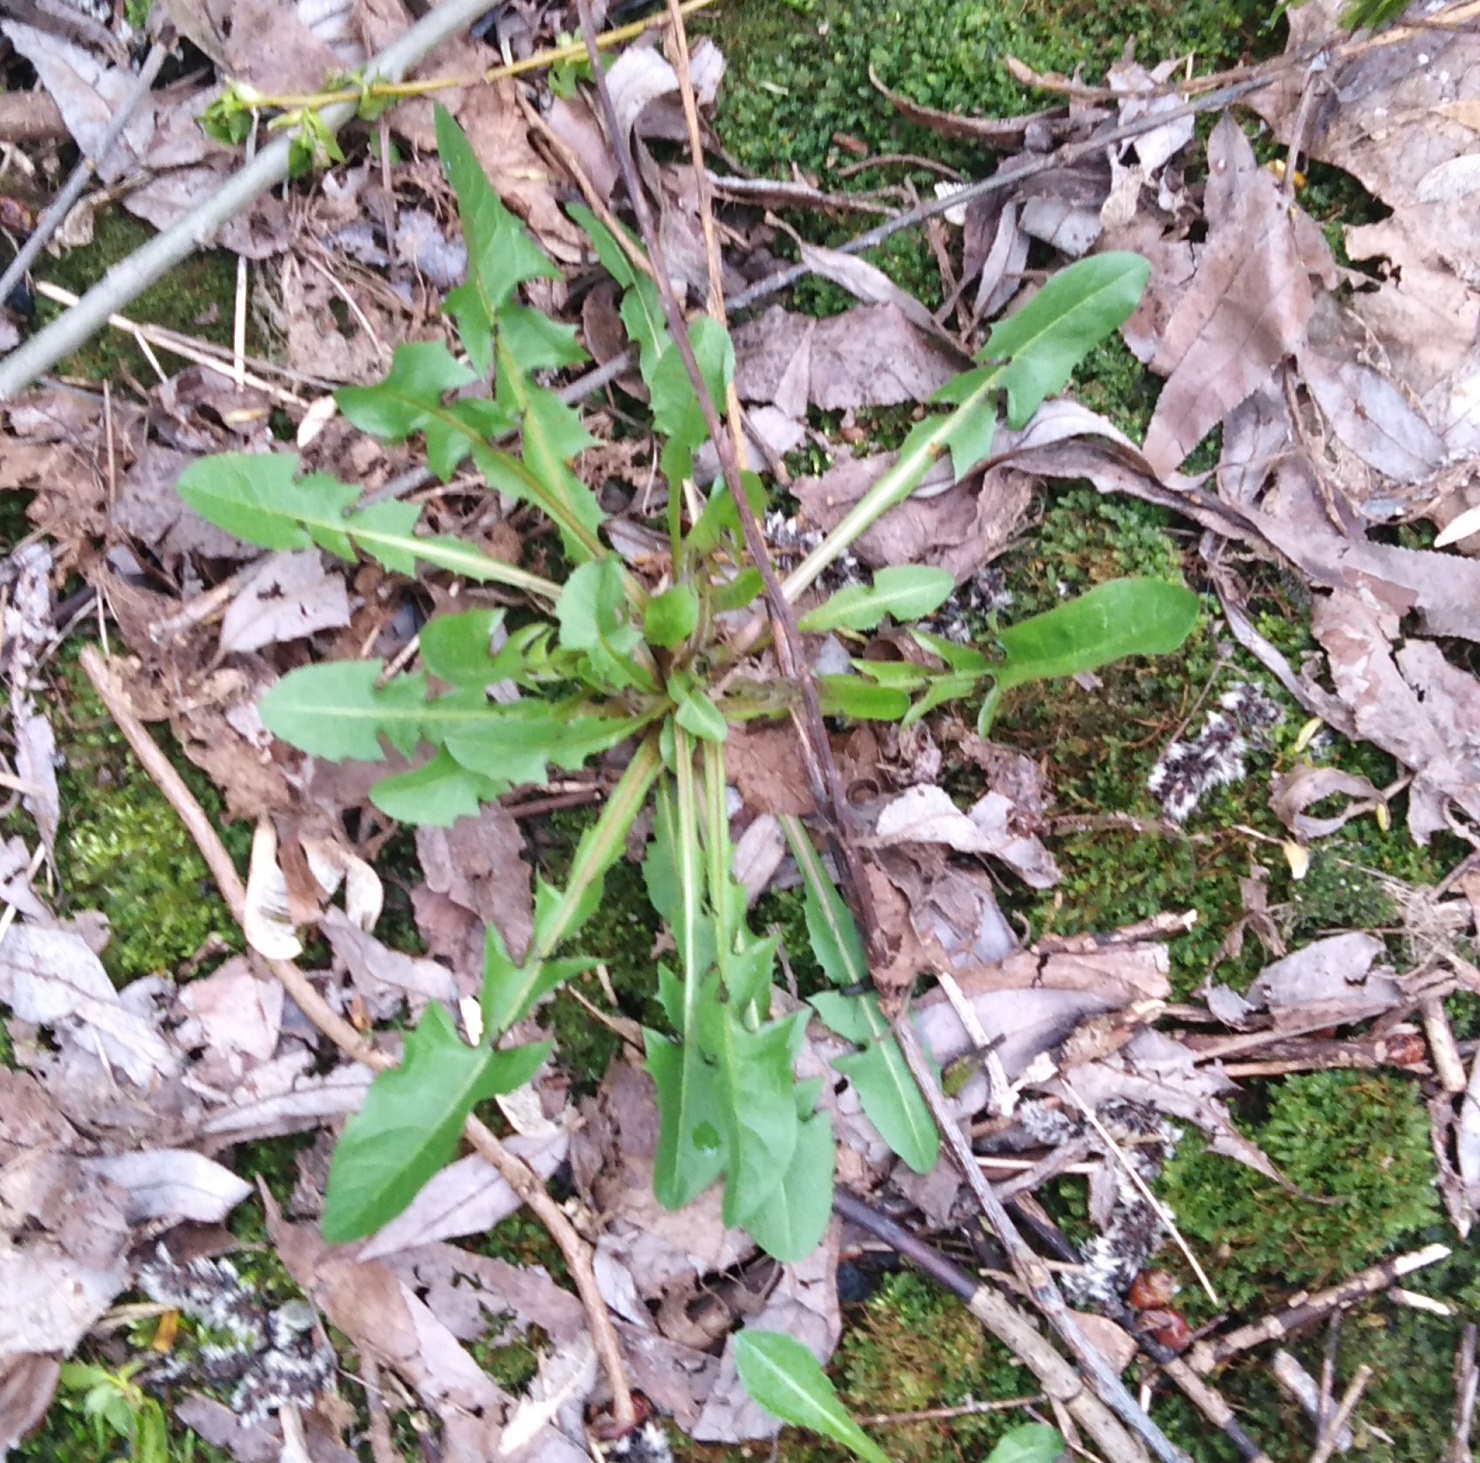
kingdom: Plantae
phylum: Tracheophyta
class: Magnoliopsida
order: Asterales
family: Asteraceae
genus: Taraxacum
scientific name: Taraxacum officinale
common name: Common dandelion
